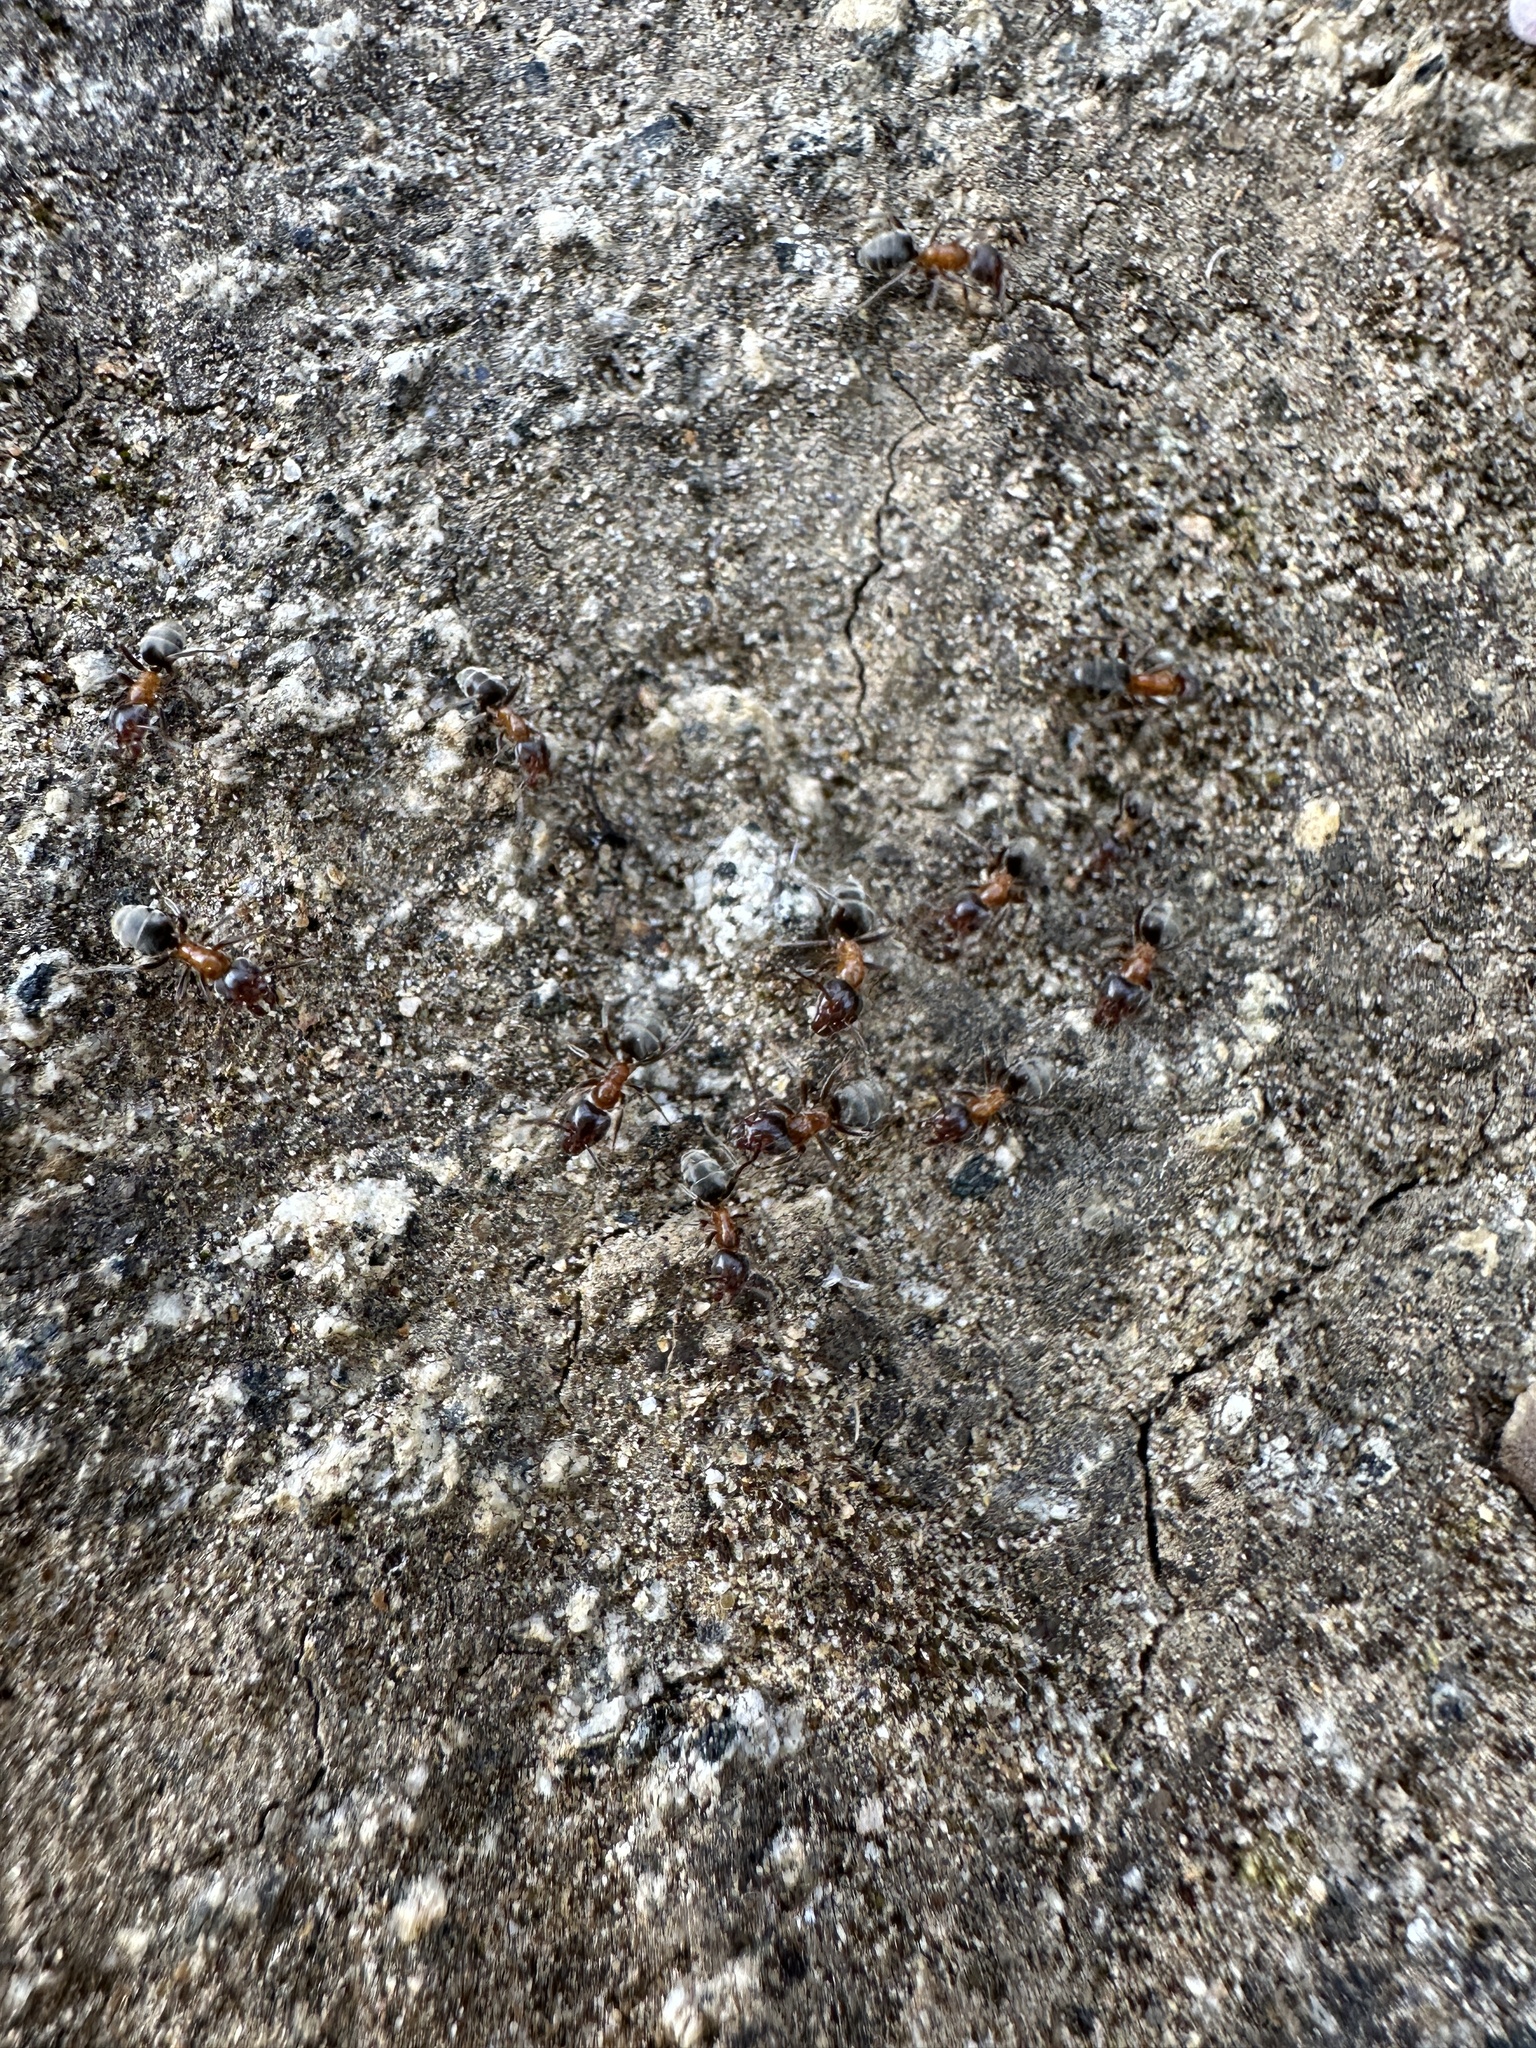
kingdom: Animalia
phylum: Arthropoda
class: Insecta
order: Hymenoptera
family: Formicidae
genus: Liometopum
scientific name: Liometopum occidentale
